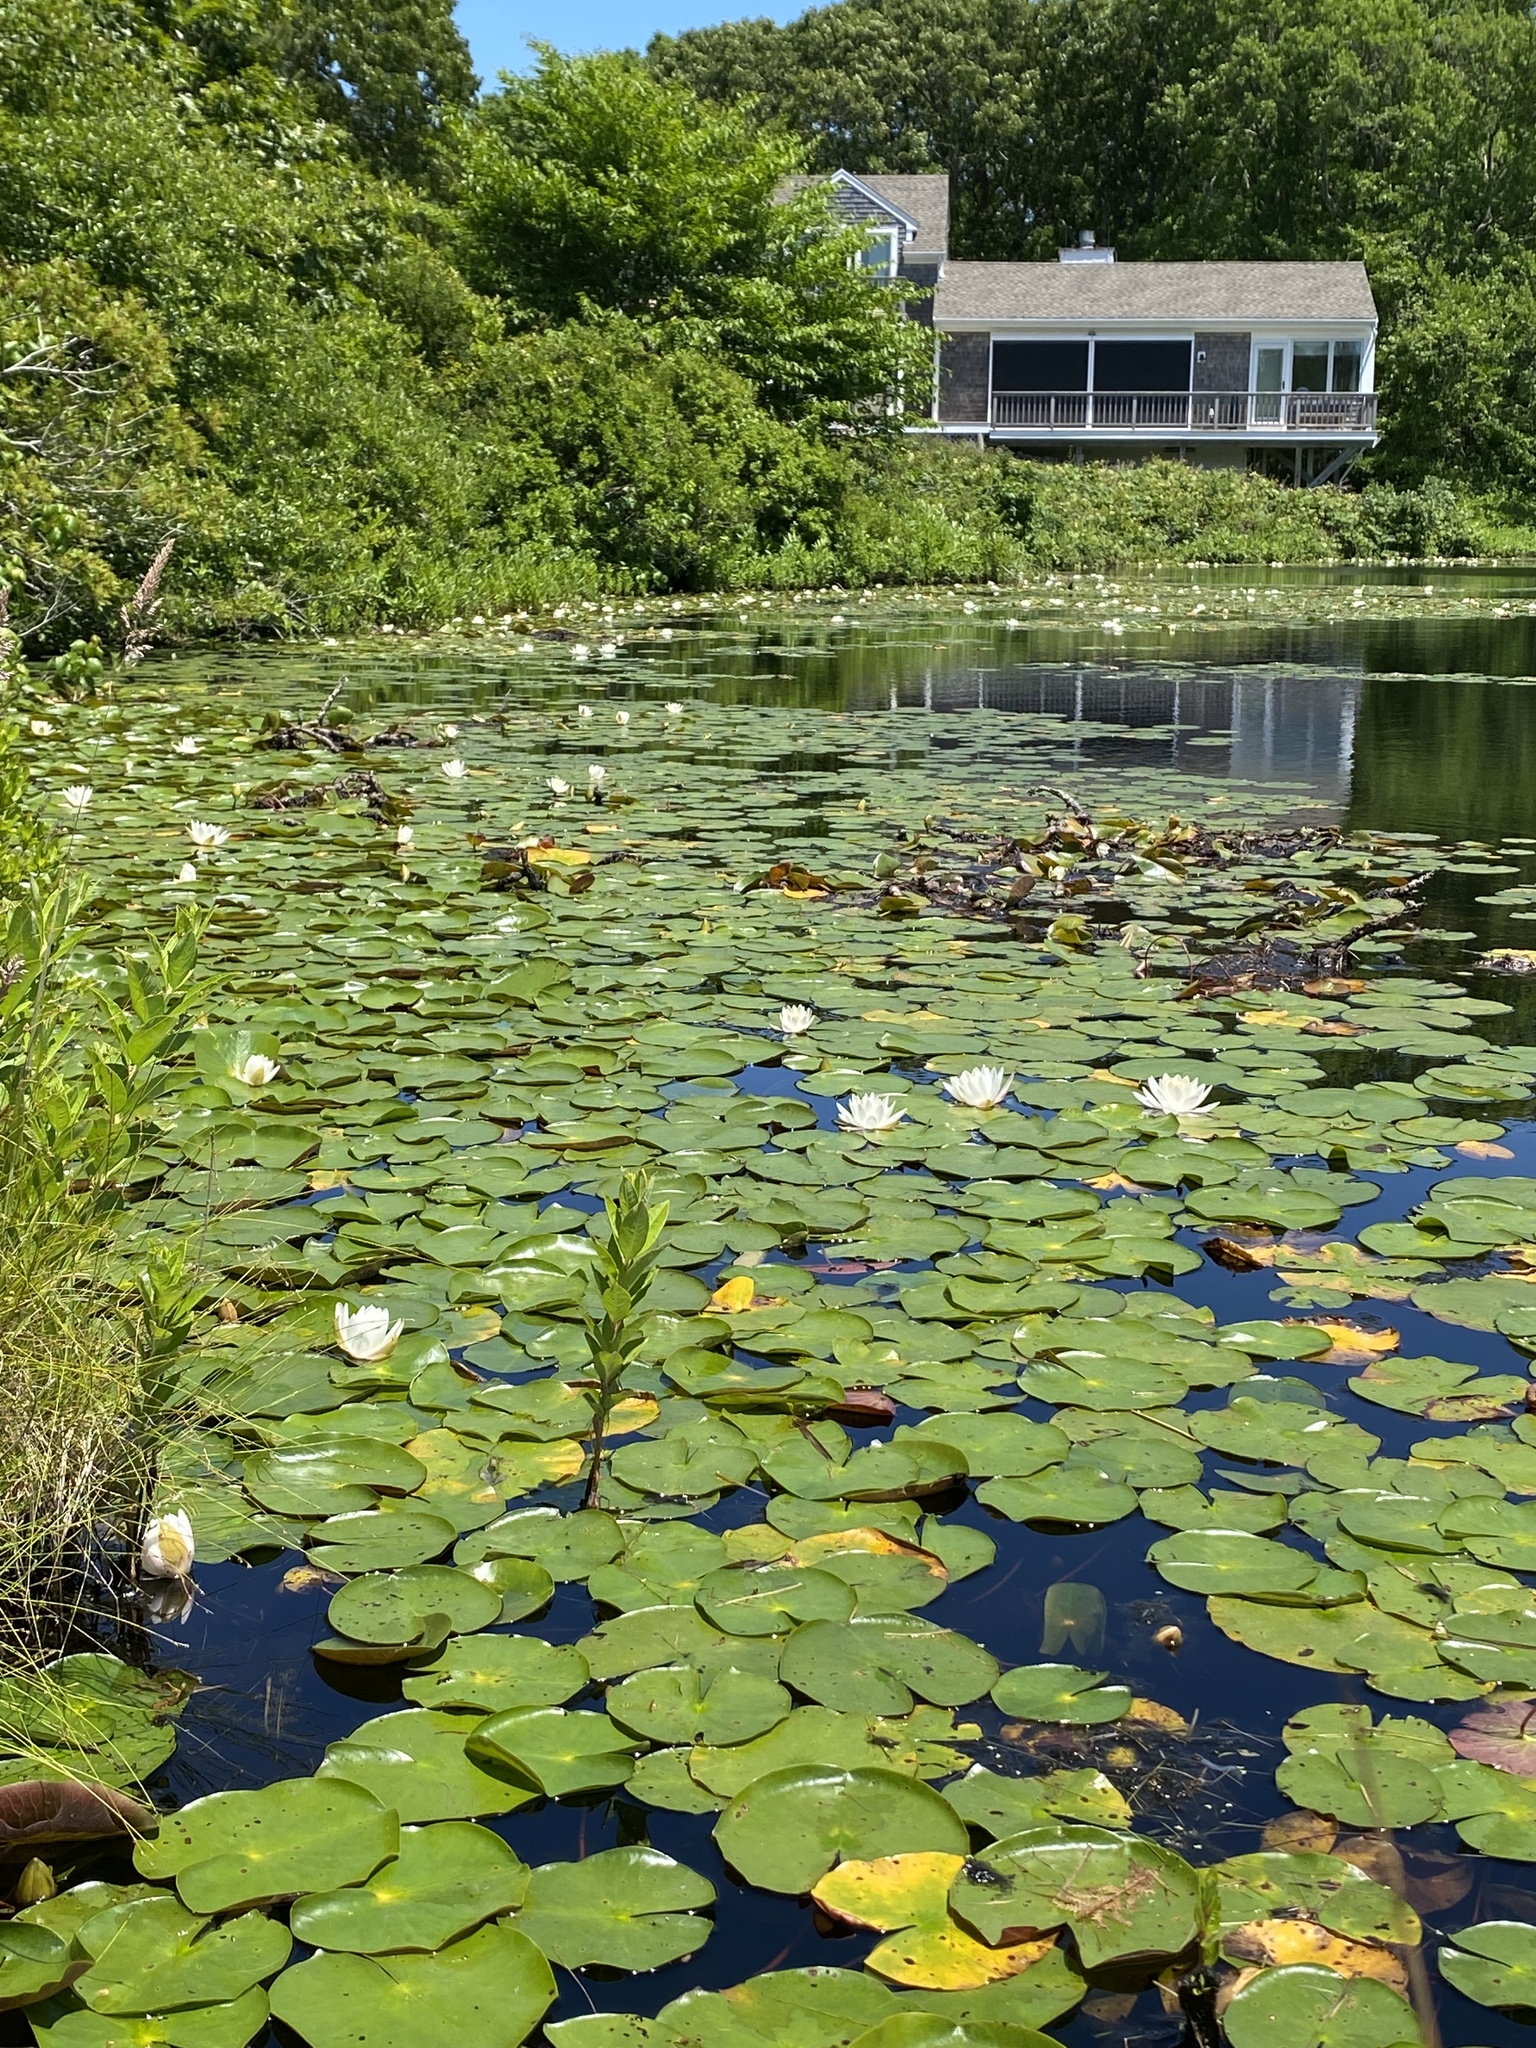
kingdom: Plantae
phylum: Tracheophyta
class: Magnoliopsida
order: Nymphaeales
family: Nymphaeaceae
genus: Nymphaea
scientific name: Nymphaea odorata
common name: Fragrant water-lily
